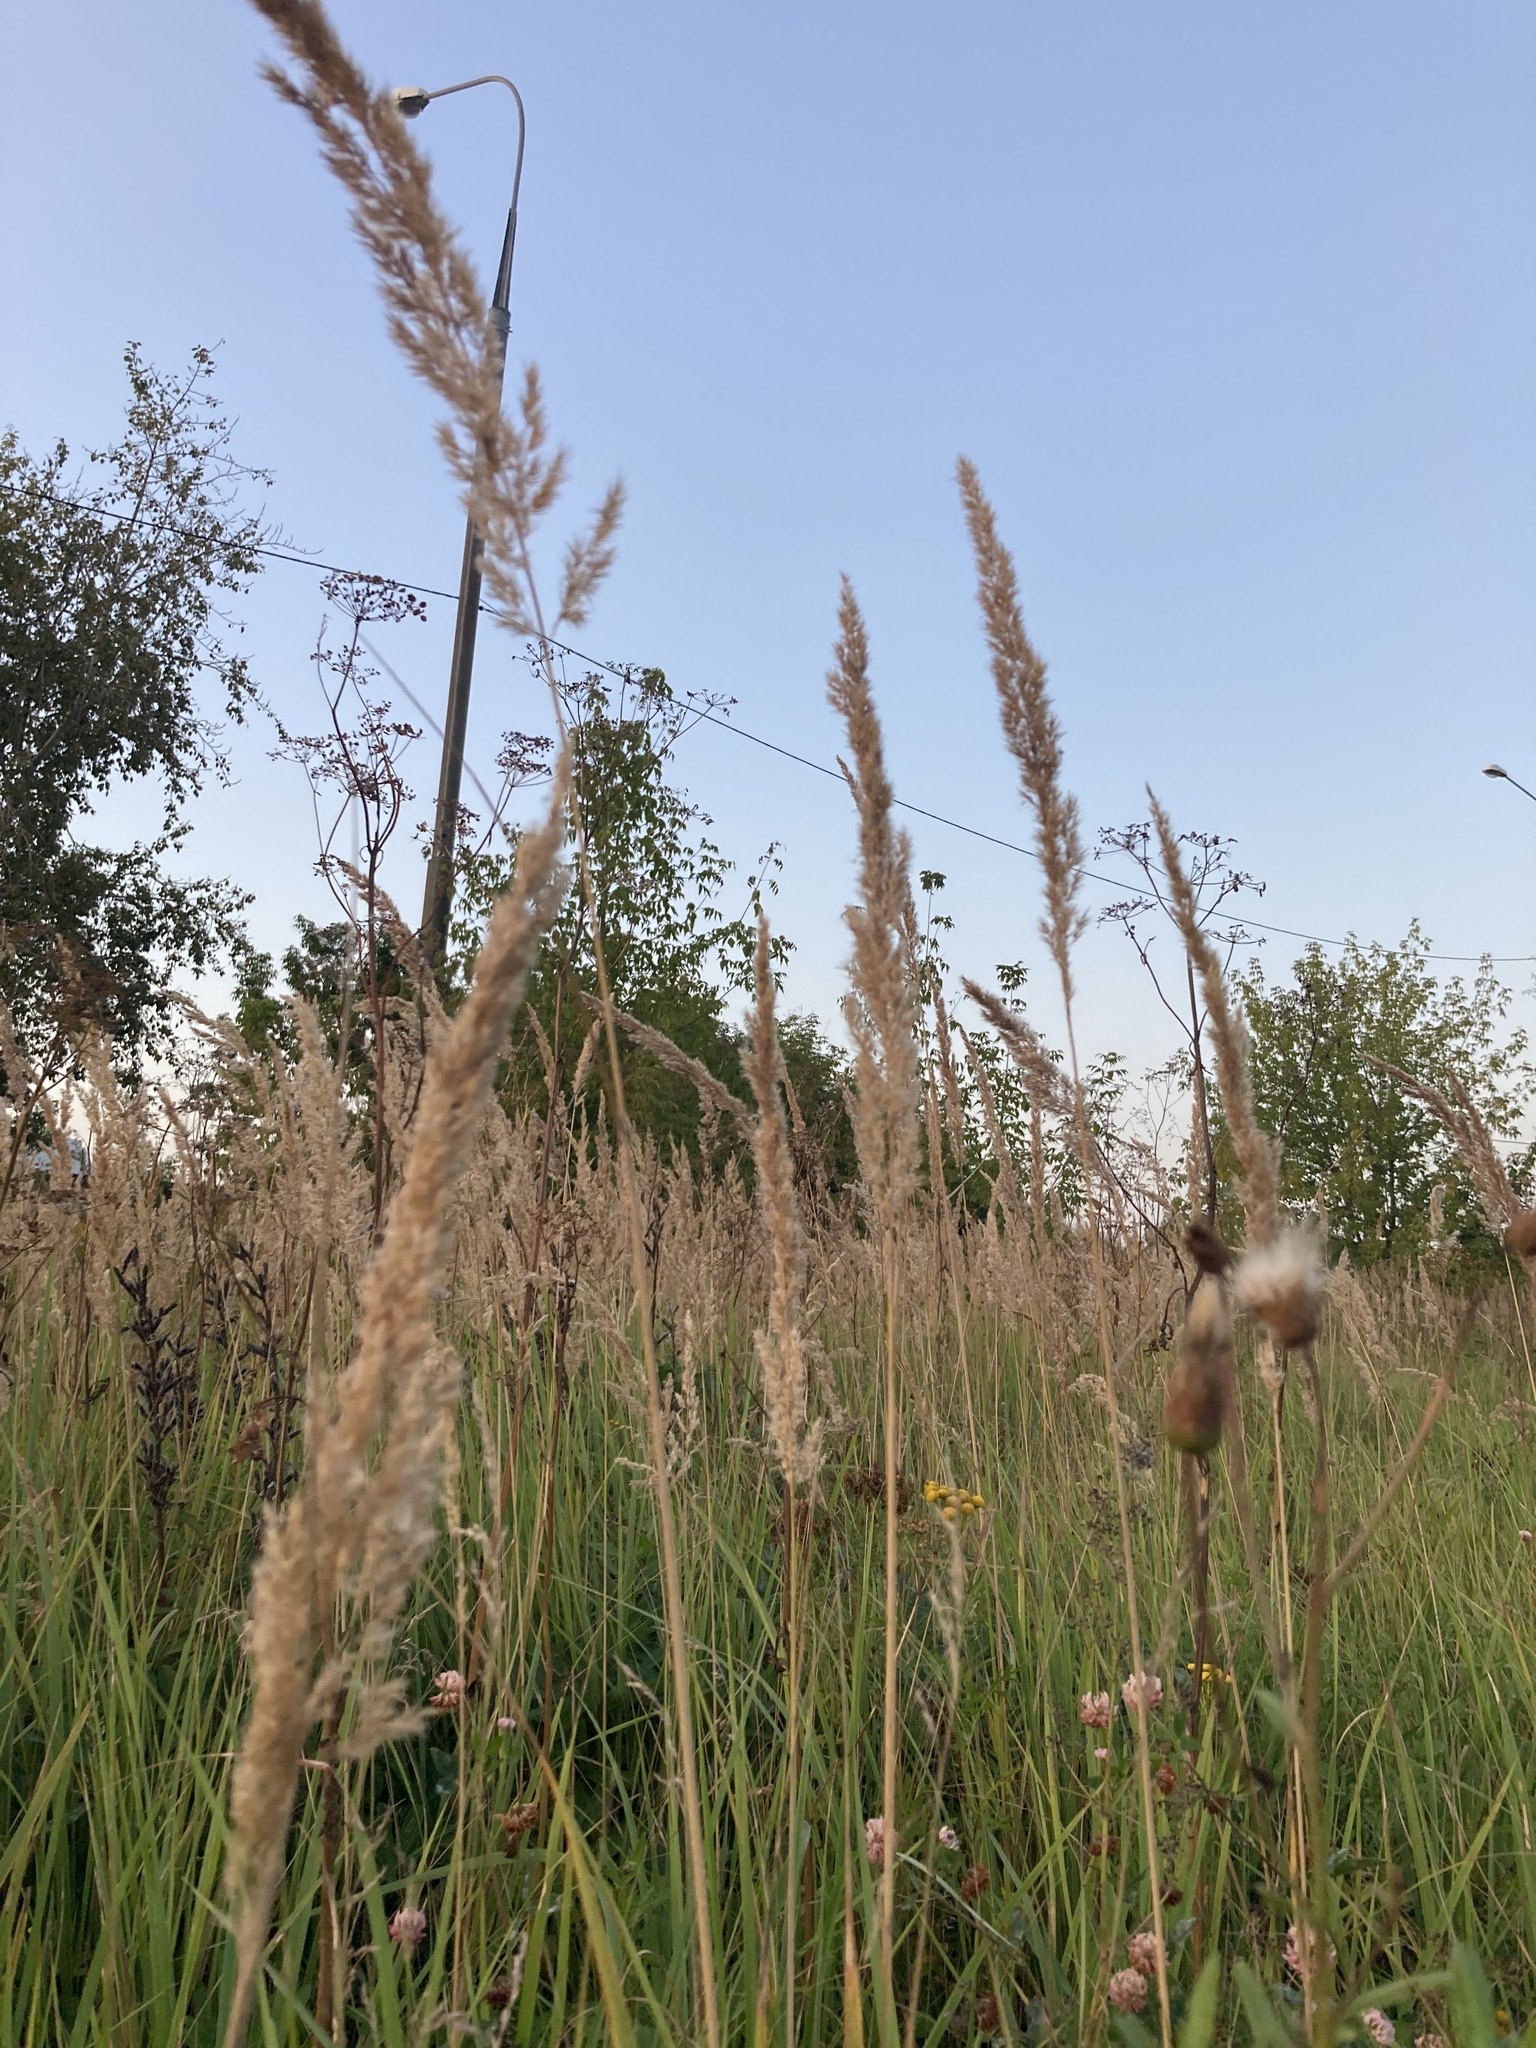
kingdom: Plantae
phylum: Tracheophyta
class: Liliopsida
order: Poales
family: Poaceae
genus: Calamagrostis
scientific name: Calamagrostis epigejos
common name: Wood small-reed
